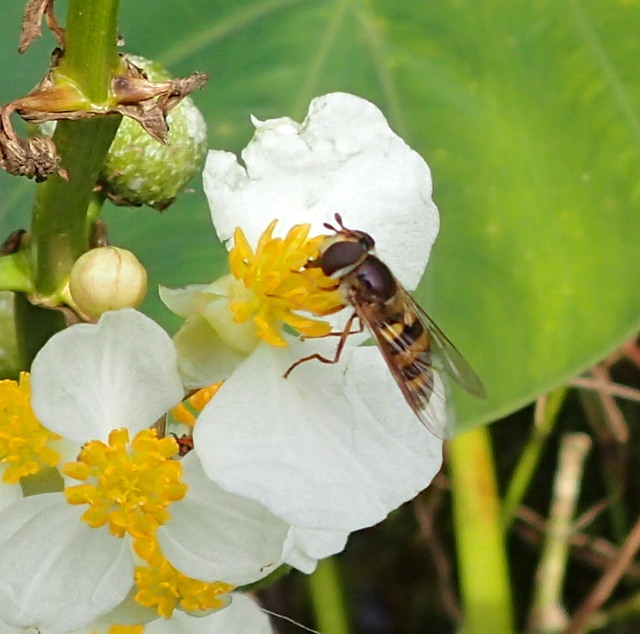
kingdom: Animalia
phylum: Arthropoda
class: Insecta
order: Diptera
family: Syrphidae
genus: Eupeodes
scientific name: Eupeodes
